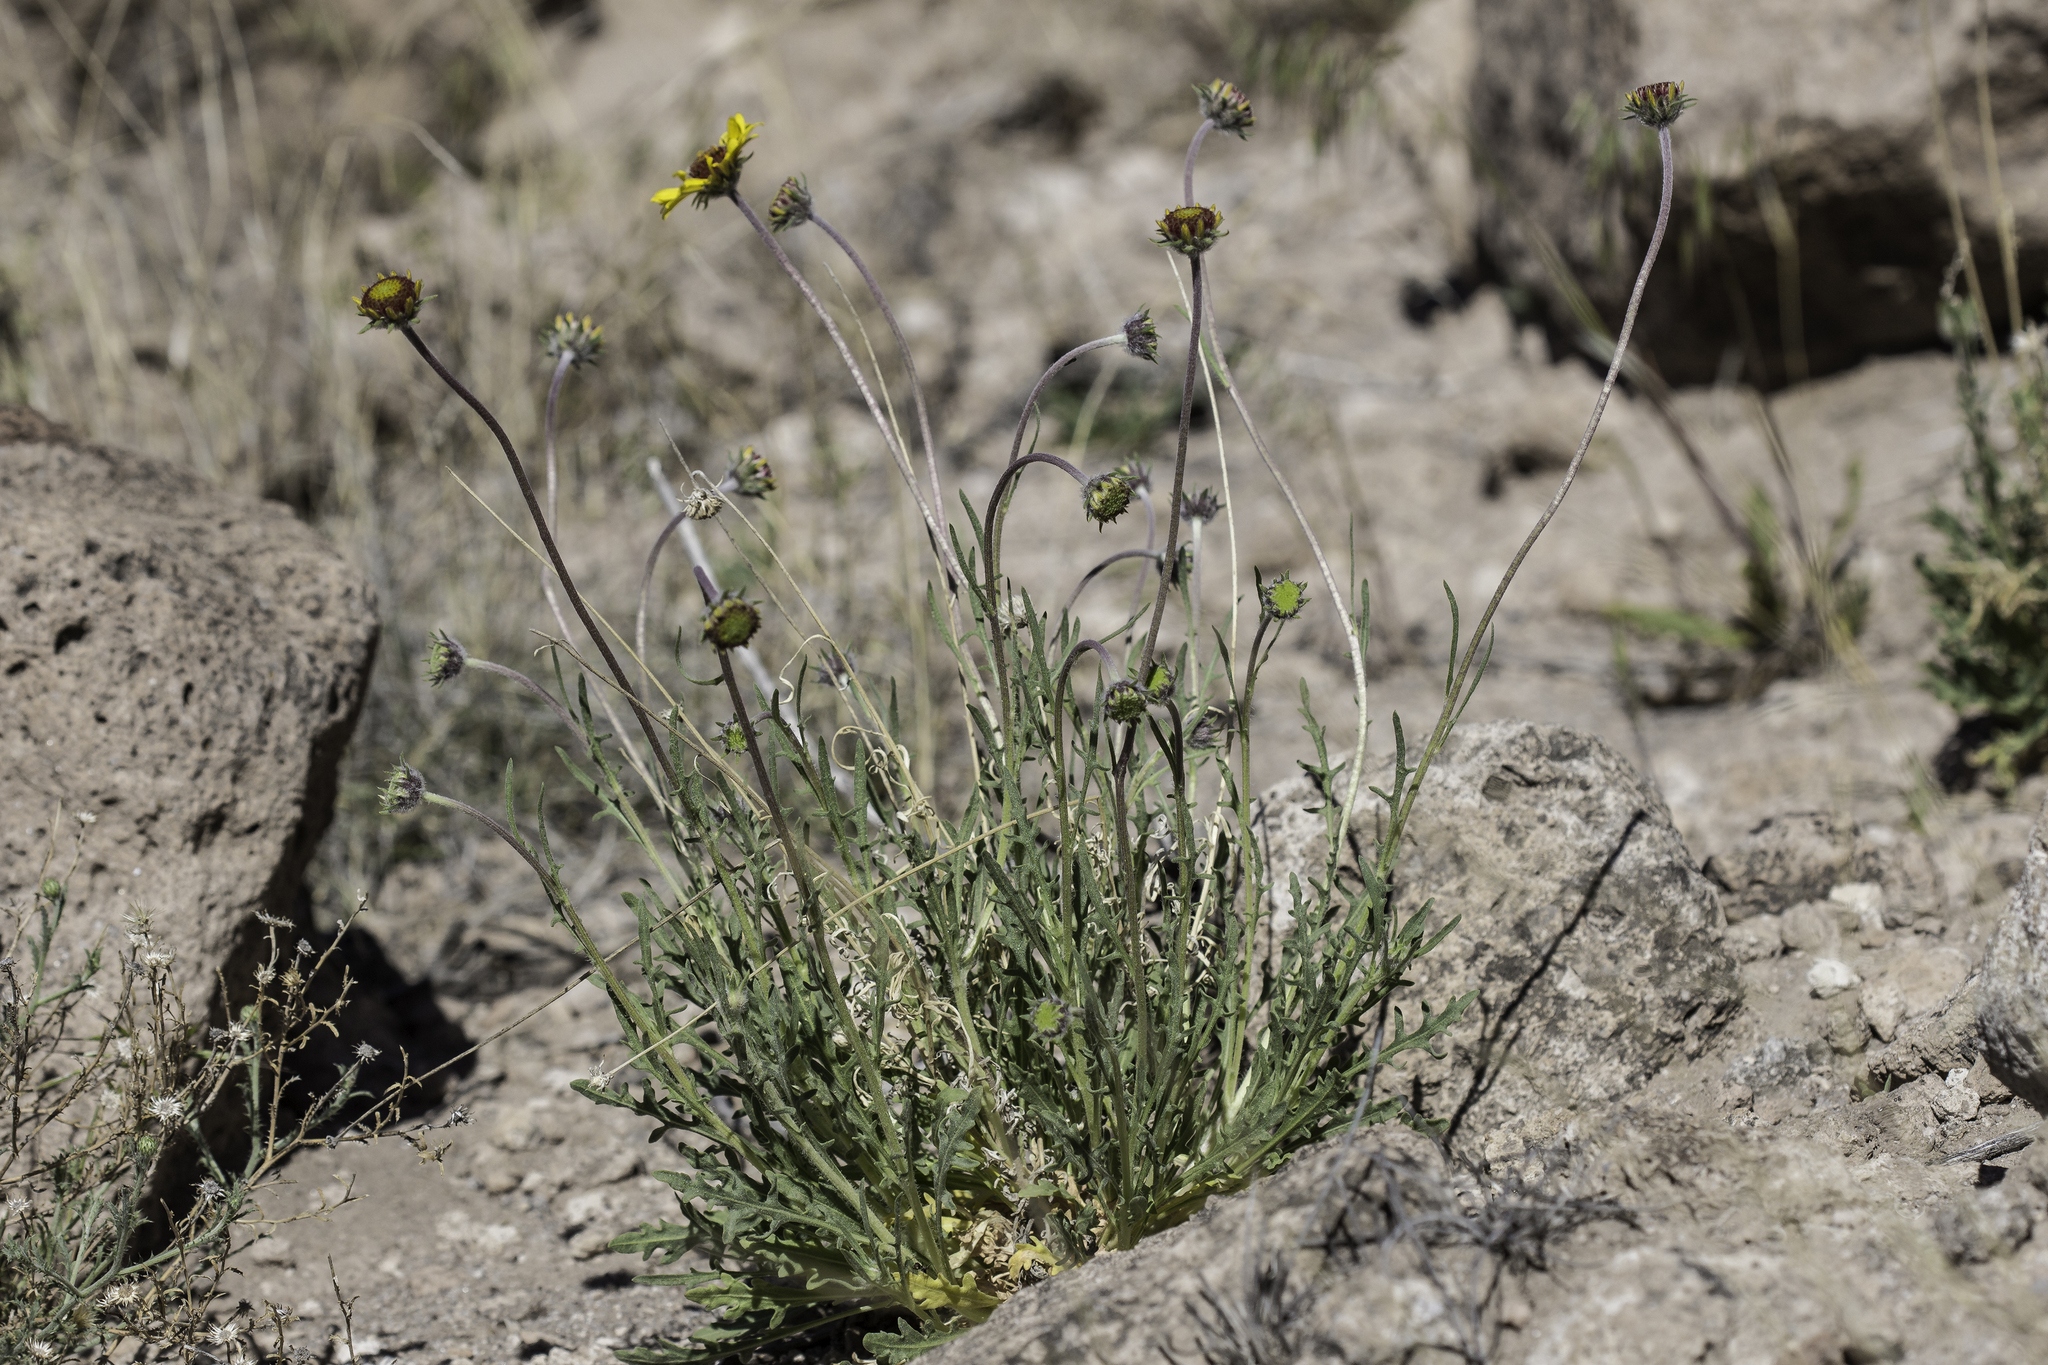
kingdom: Plantae
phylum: Tracheophyta
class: Magnoliopsida
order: Asterales
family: Asteraceae
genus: Gaillardia
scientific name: Gaillardia pinnatifida
